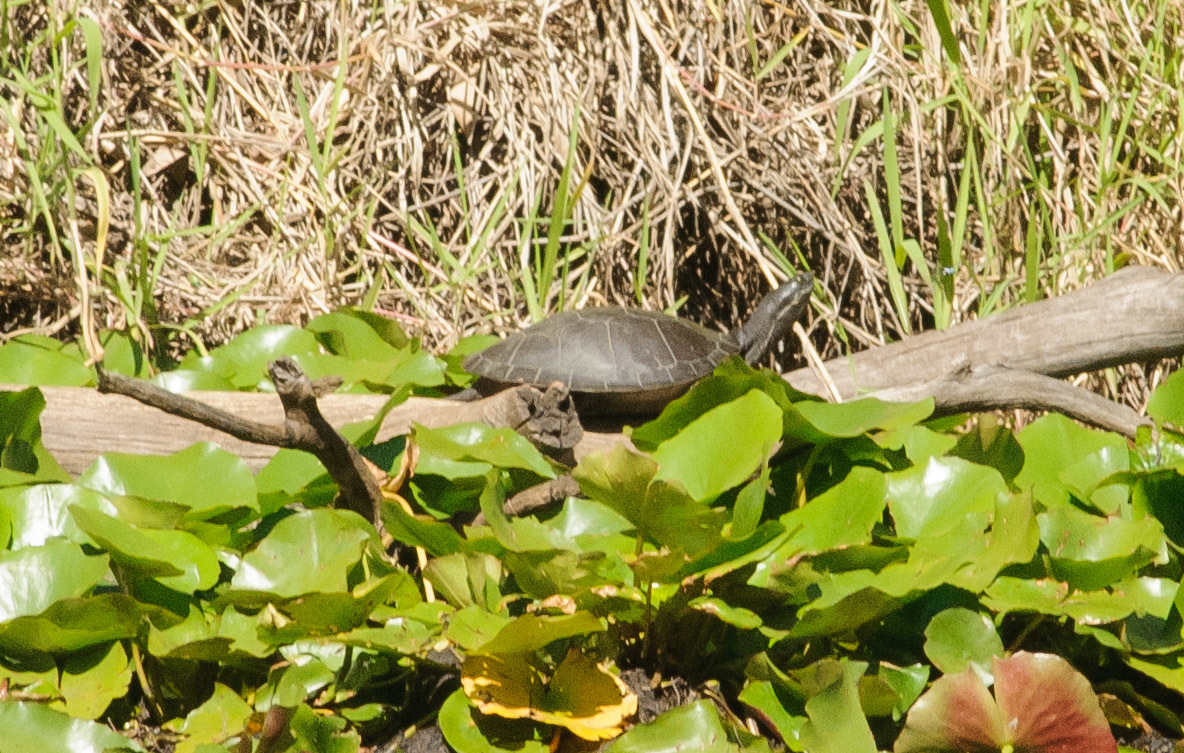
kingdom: Animalia
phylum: Chordata
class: Testudines
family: Chelidae
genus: Emydura
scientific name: Emydura macquarii
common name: Murray river turtle
